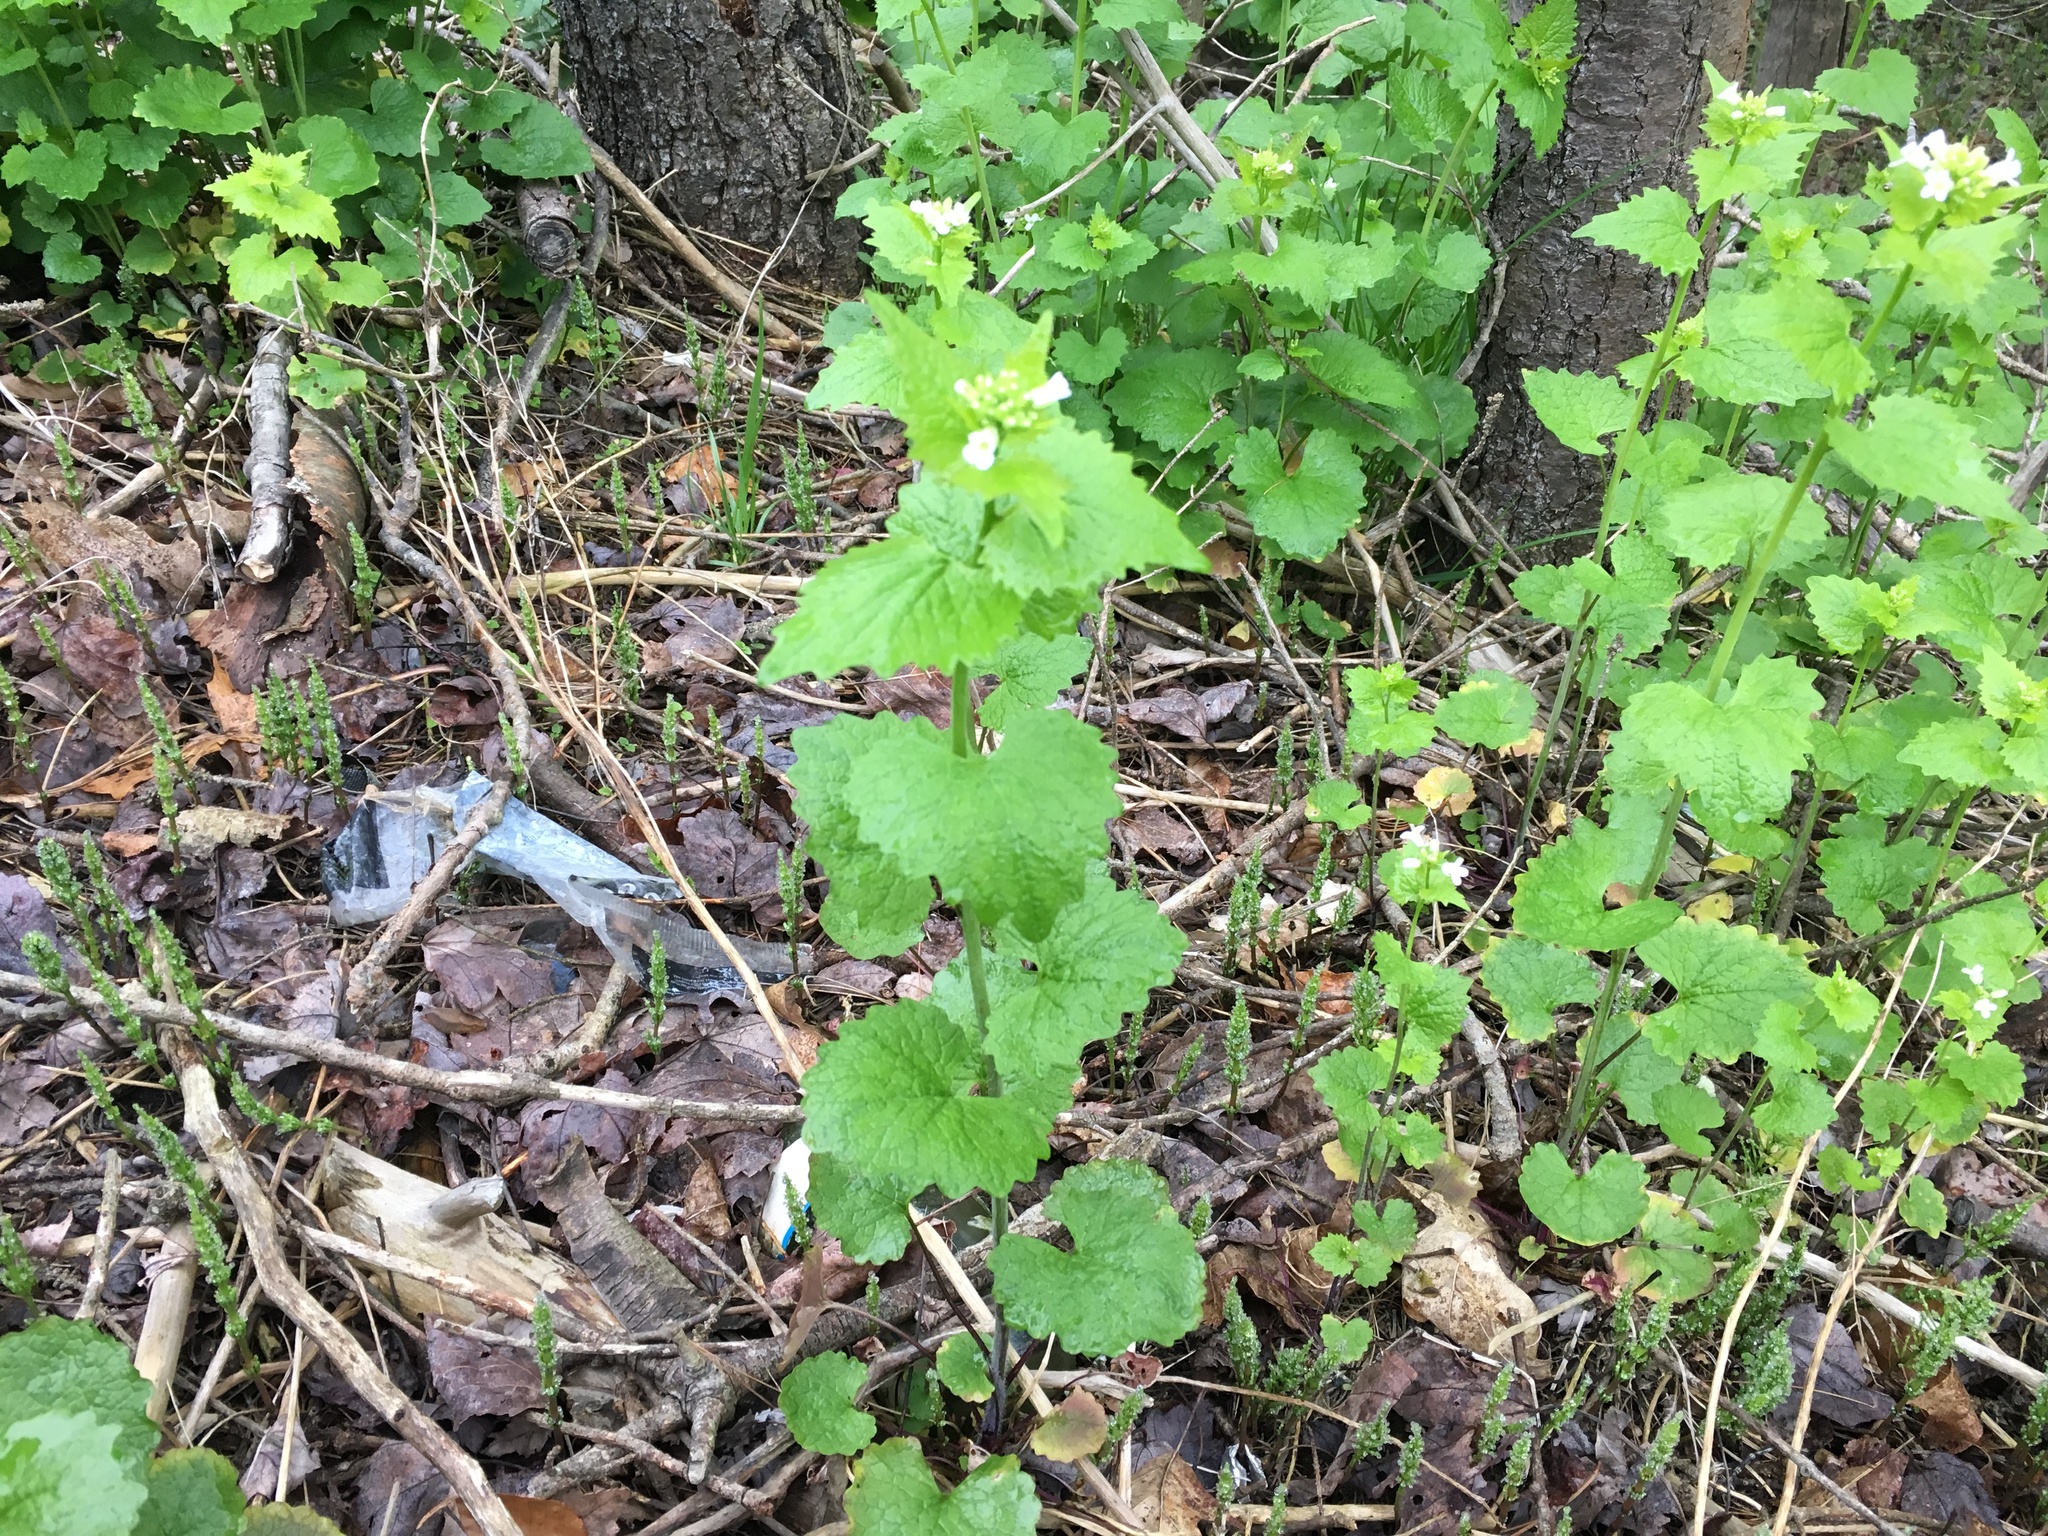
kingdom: Plantae
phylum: Tracheophyta
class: Magnoliopsida
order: Brassicales
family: Brassicaceae
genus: Alliaria
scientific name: Alliaria petiolata
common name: Garlic mustard
